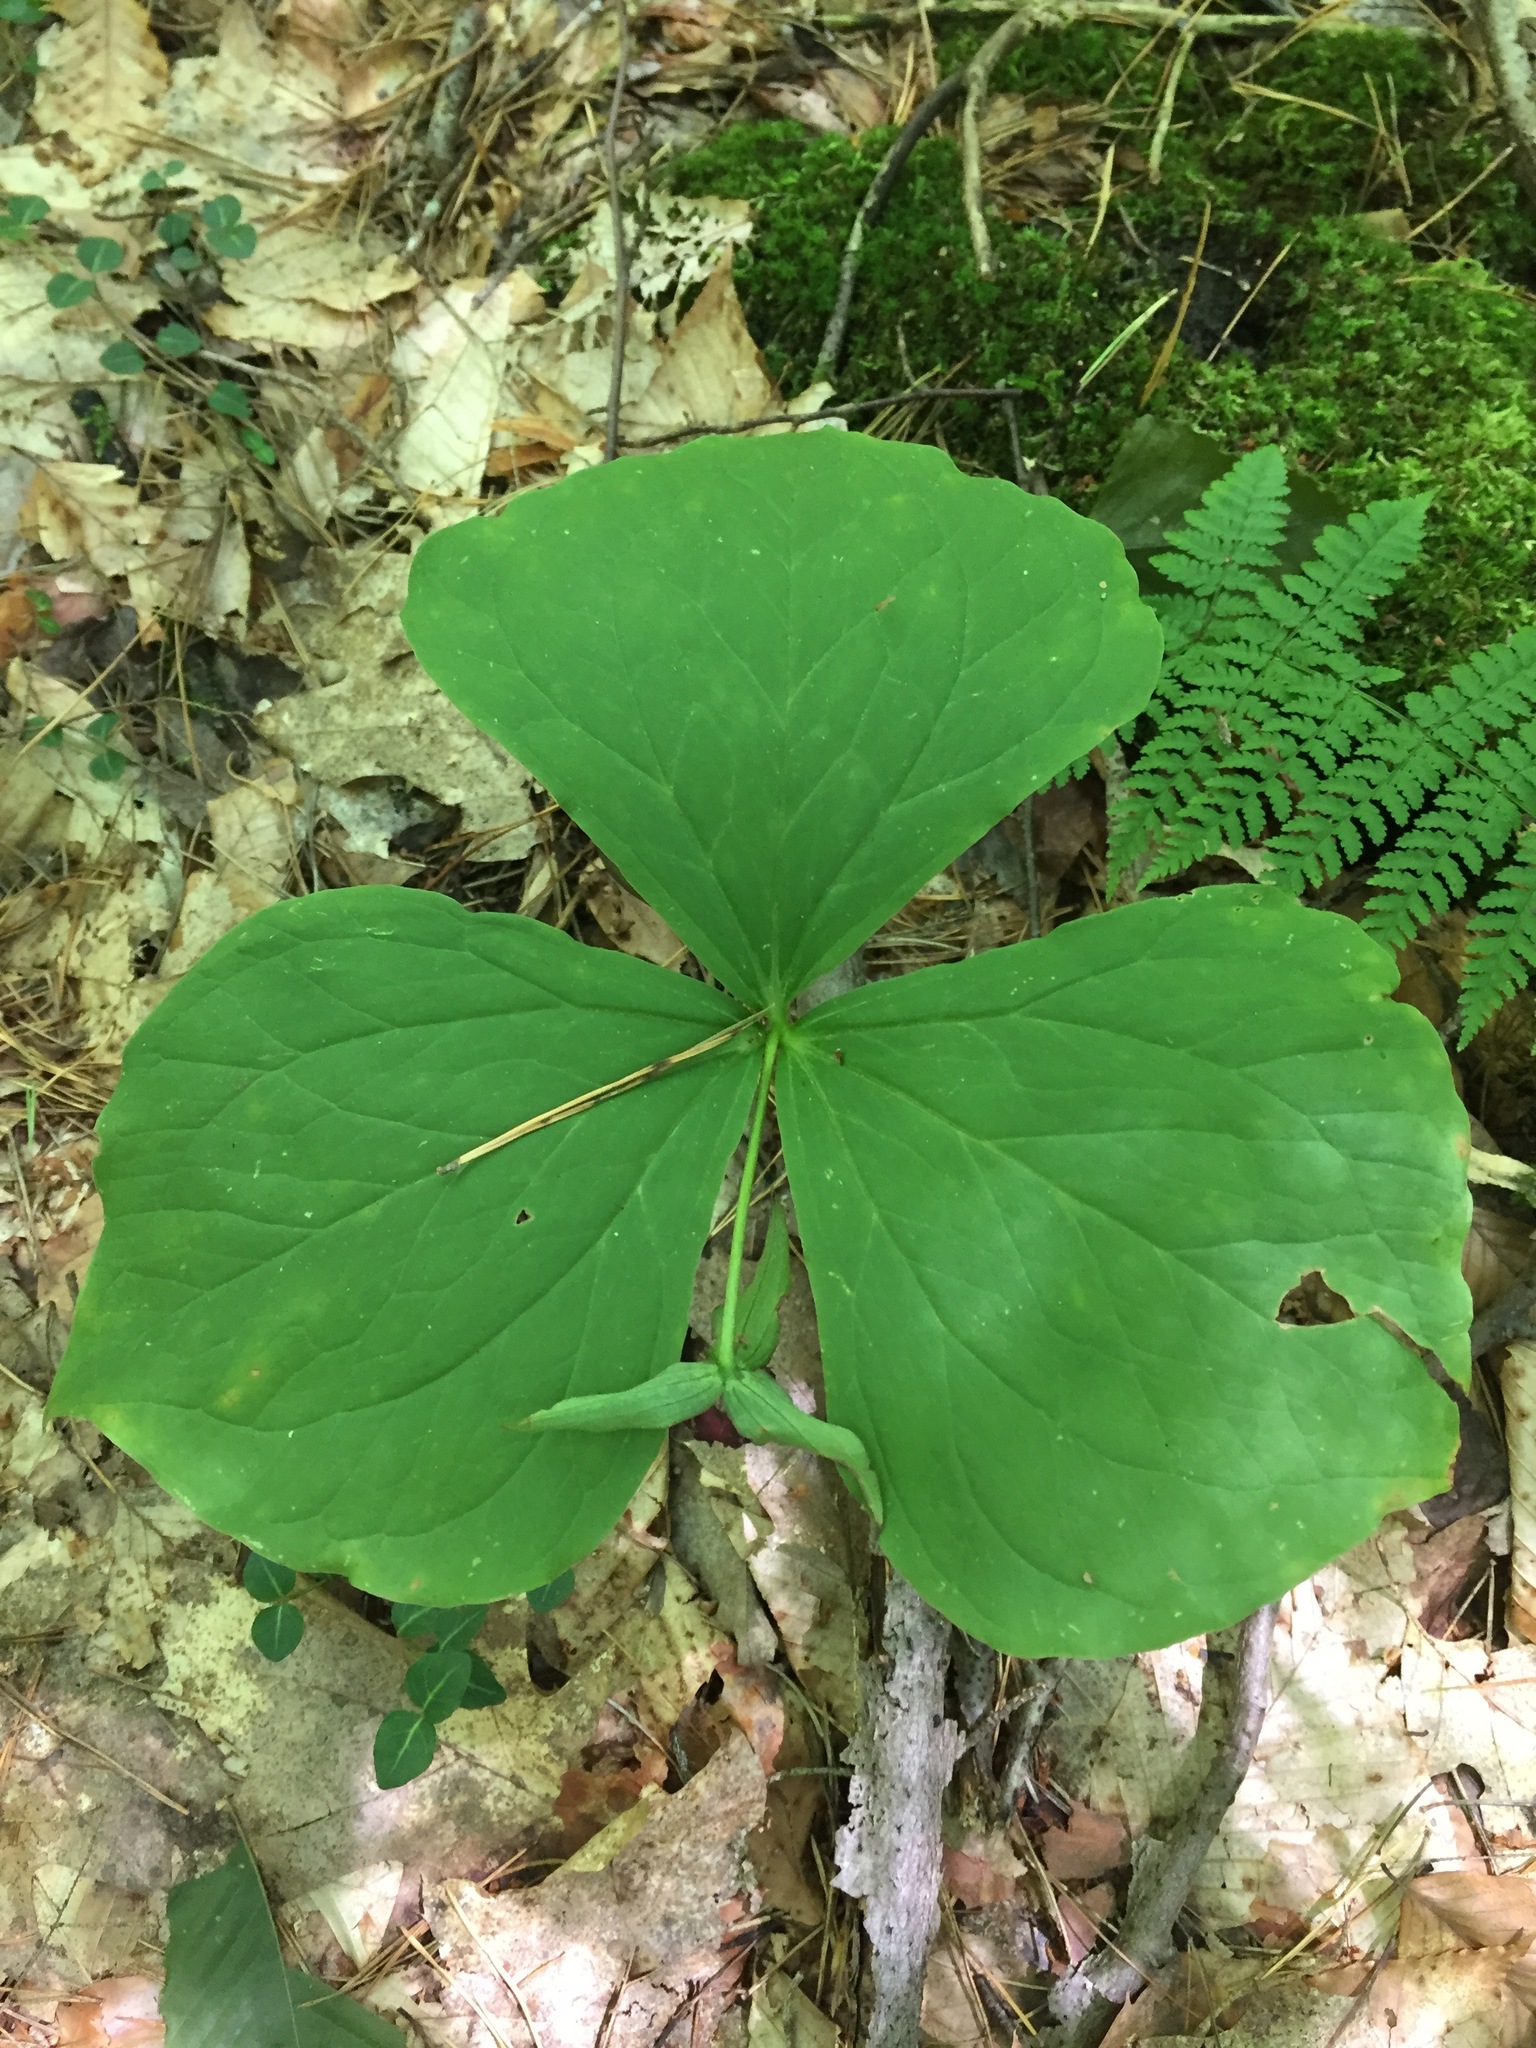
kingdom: Plantae
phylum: Tracheophyta
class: Liliopsida
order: Liliales
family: Melanthiaceae
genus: Trillium
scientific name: Trillium erectum
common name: Purple trillium
